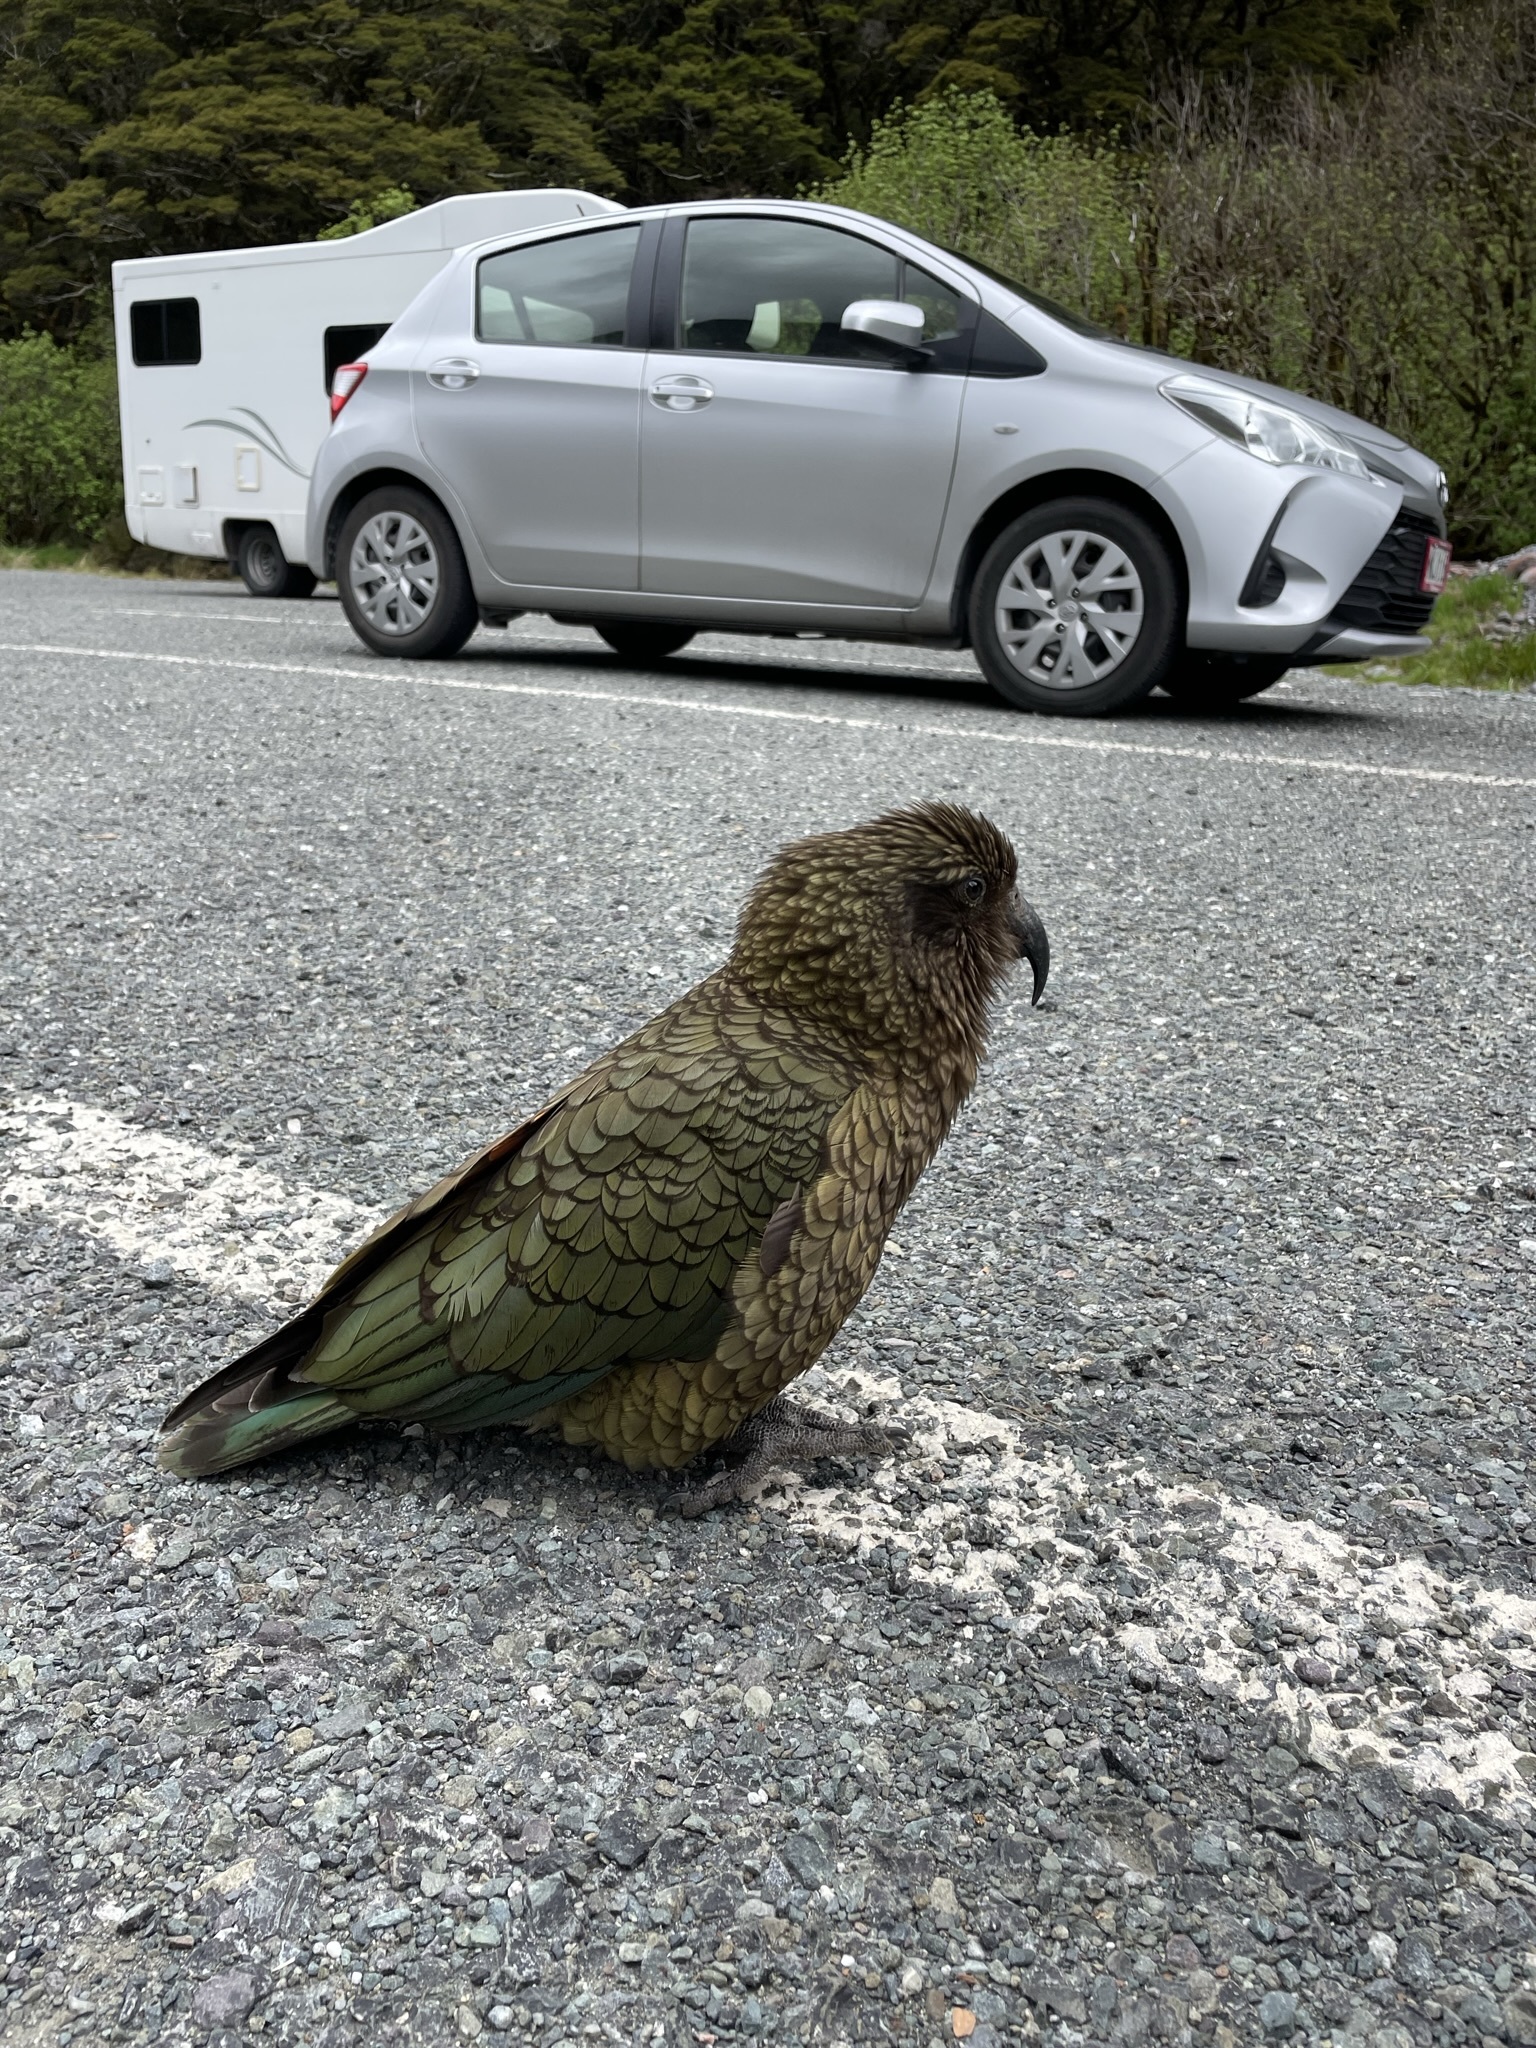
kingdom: Animalia
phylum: Chordata
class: Aves
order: Psittaciformes
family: Psittacidae
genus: Nestor
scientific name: Nestor notabilis
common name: Kea
